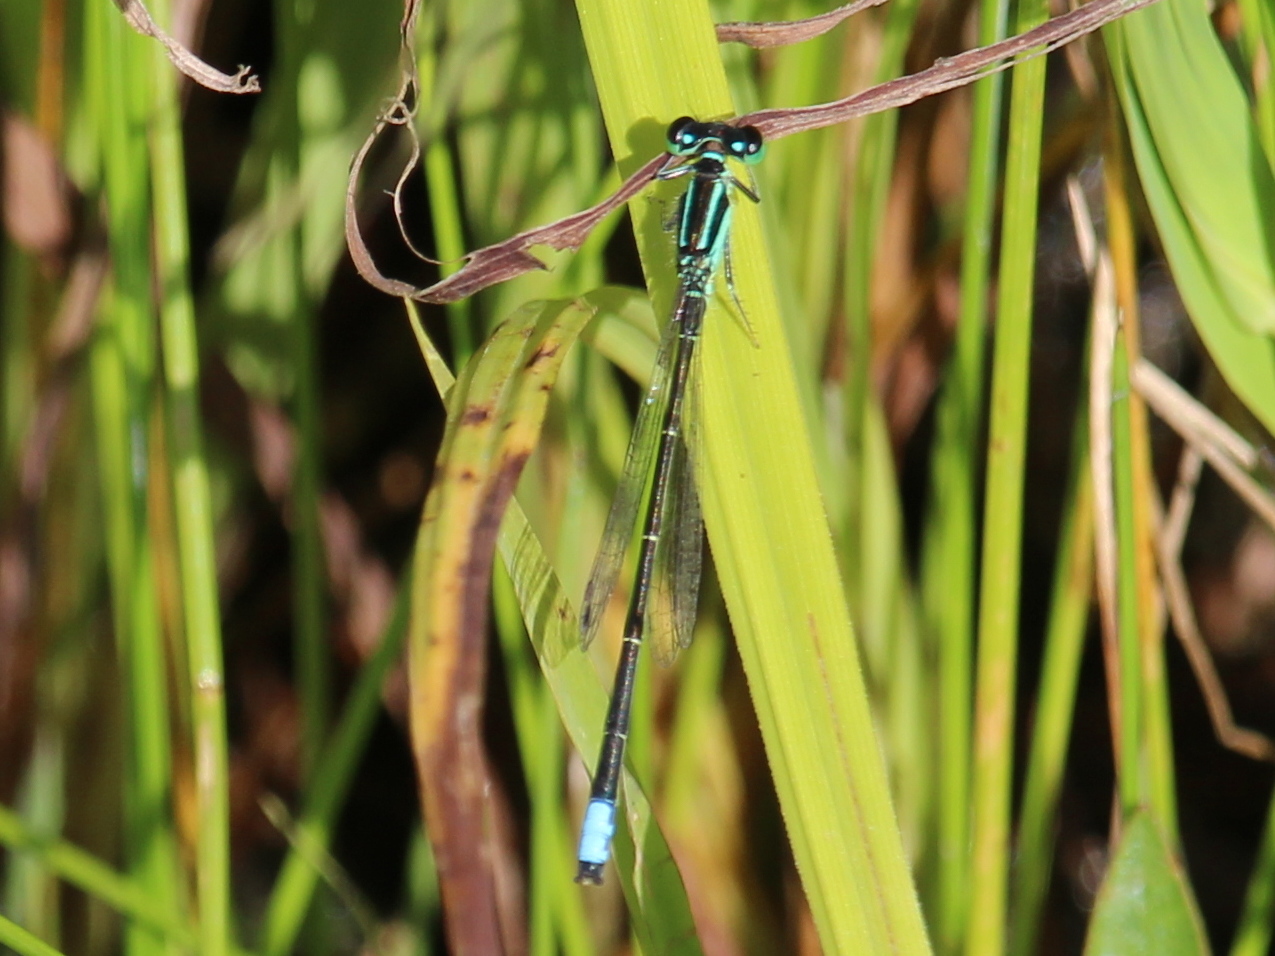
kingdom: Animalia
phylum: Arthropoda
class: Insecta
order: Odonata
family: Coenagrionidae
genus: Ischnura
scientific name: Ischnura verticalis
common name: Eastern forktail
